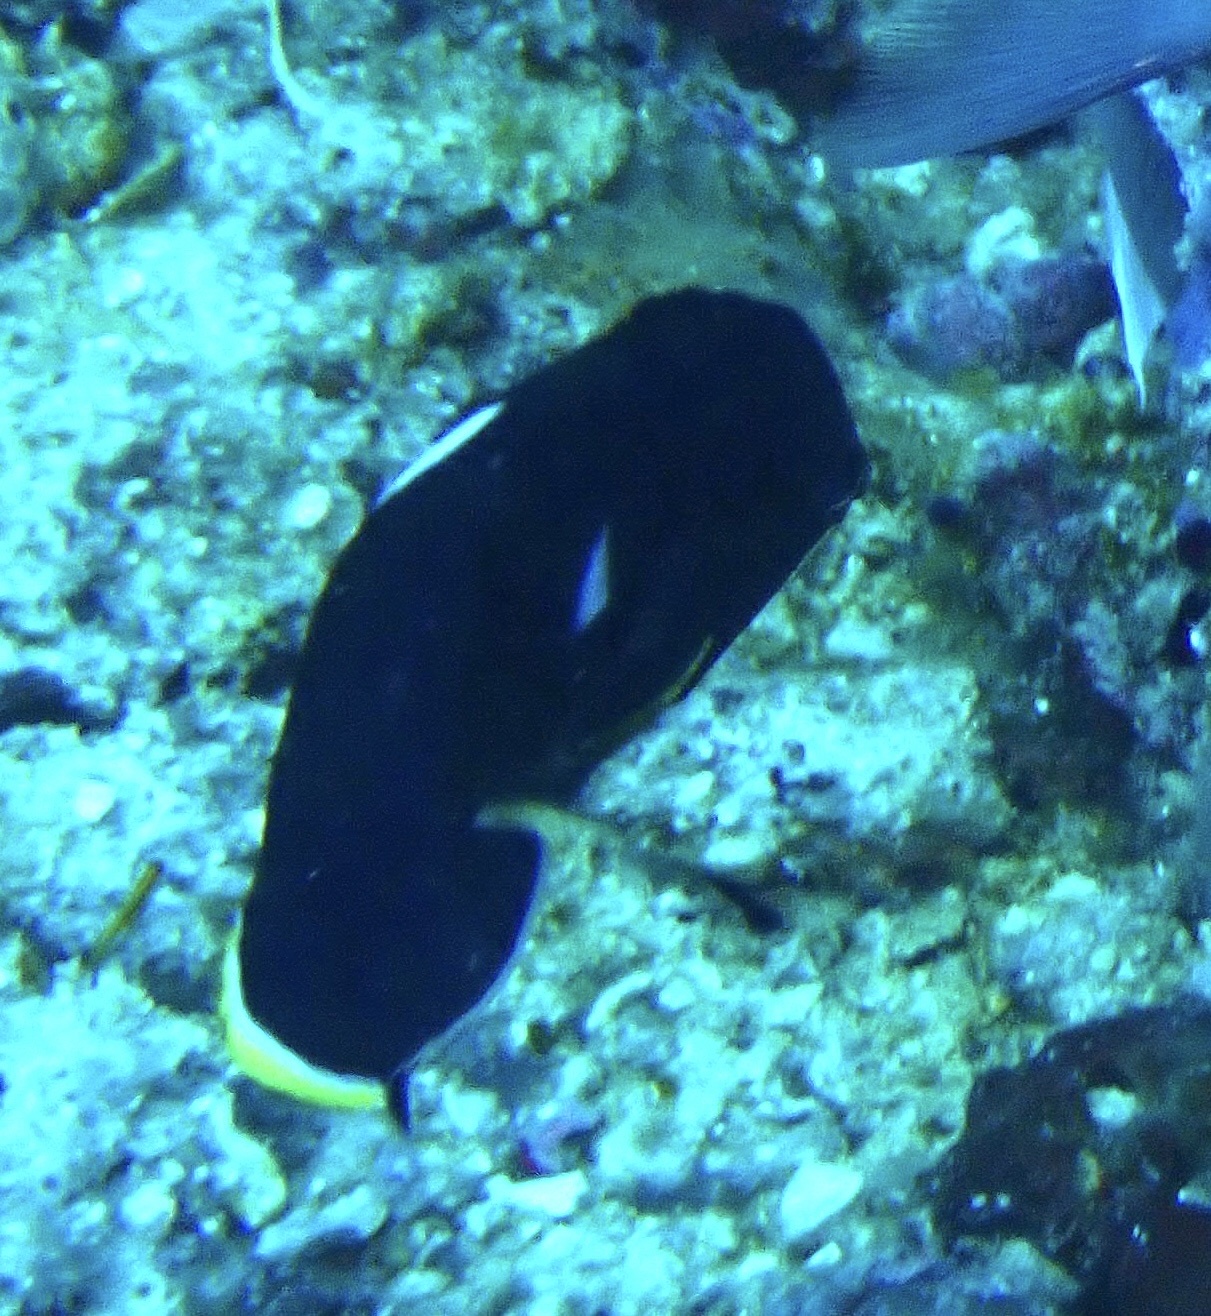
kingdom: Animalia
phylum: Chordata
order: Perciformes
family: Pomacanthidae
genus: Centropyge
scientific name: Centropyge tibicen
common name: Keyhole angelfish
